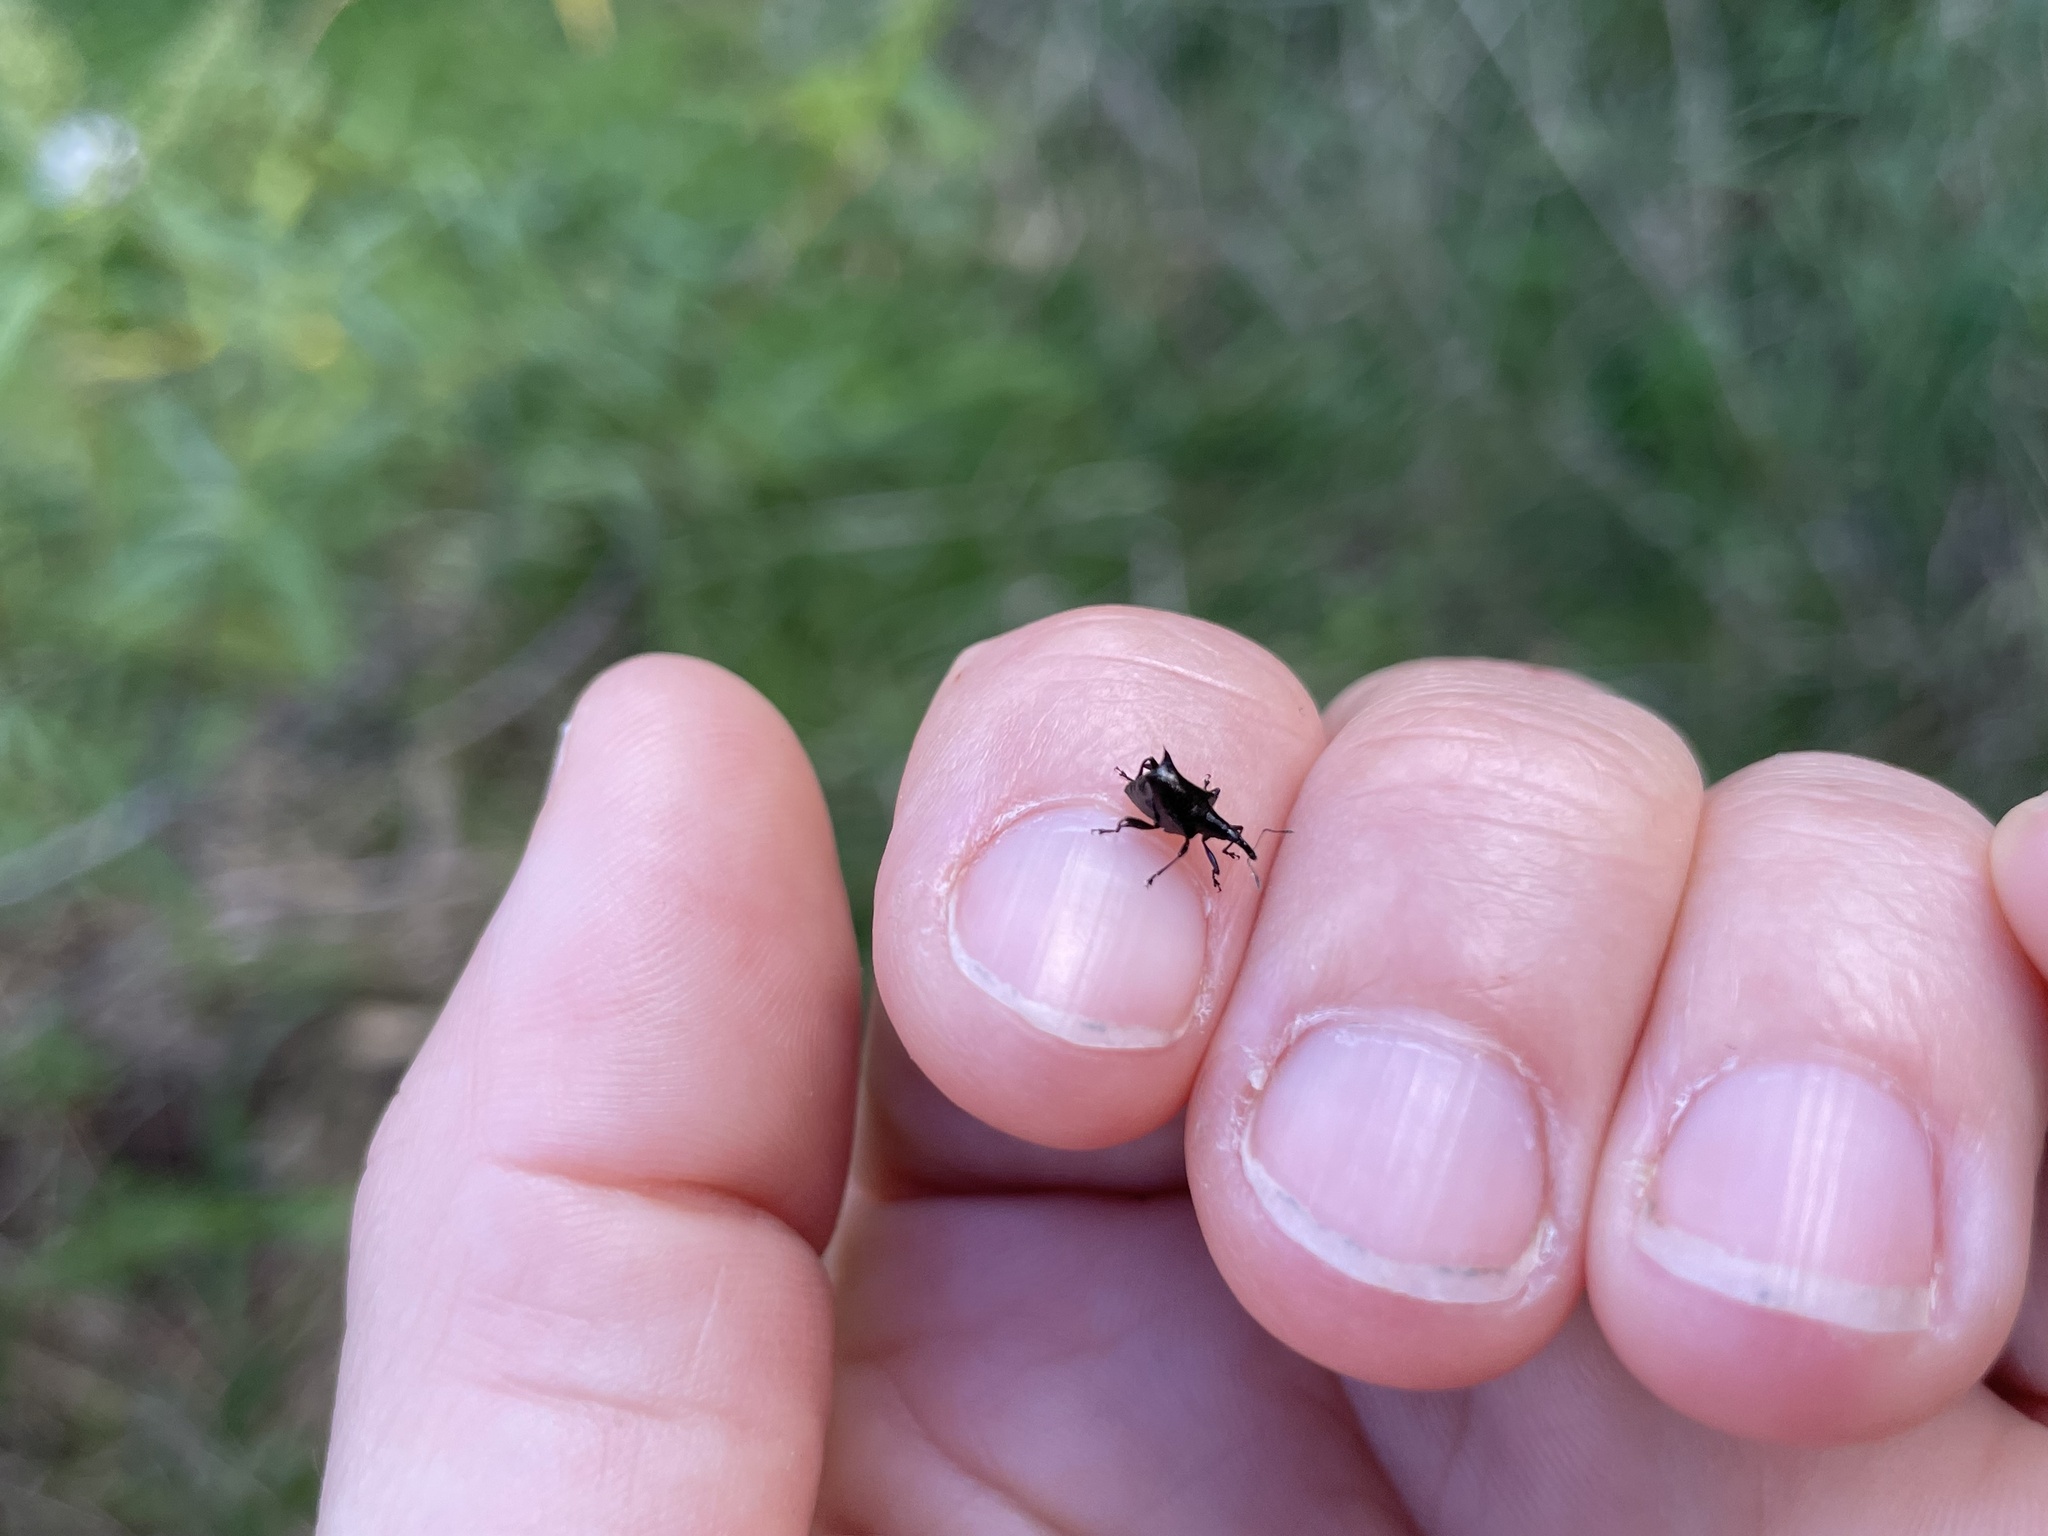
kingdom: Animalia
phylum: Arthropoda
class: Insecta
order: Coleoptera
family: Curculionidae
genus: Scolopterus
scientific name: Scolopterus penicillatus
